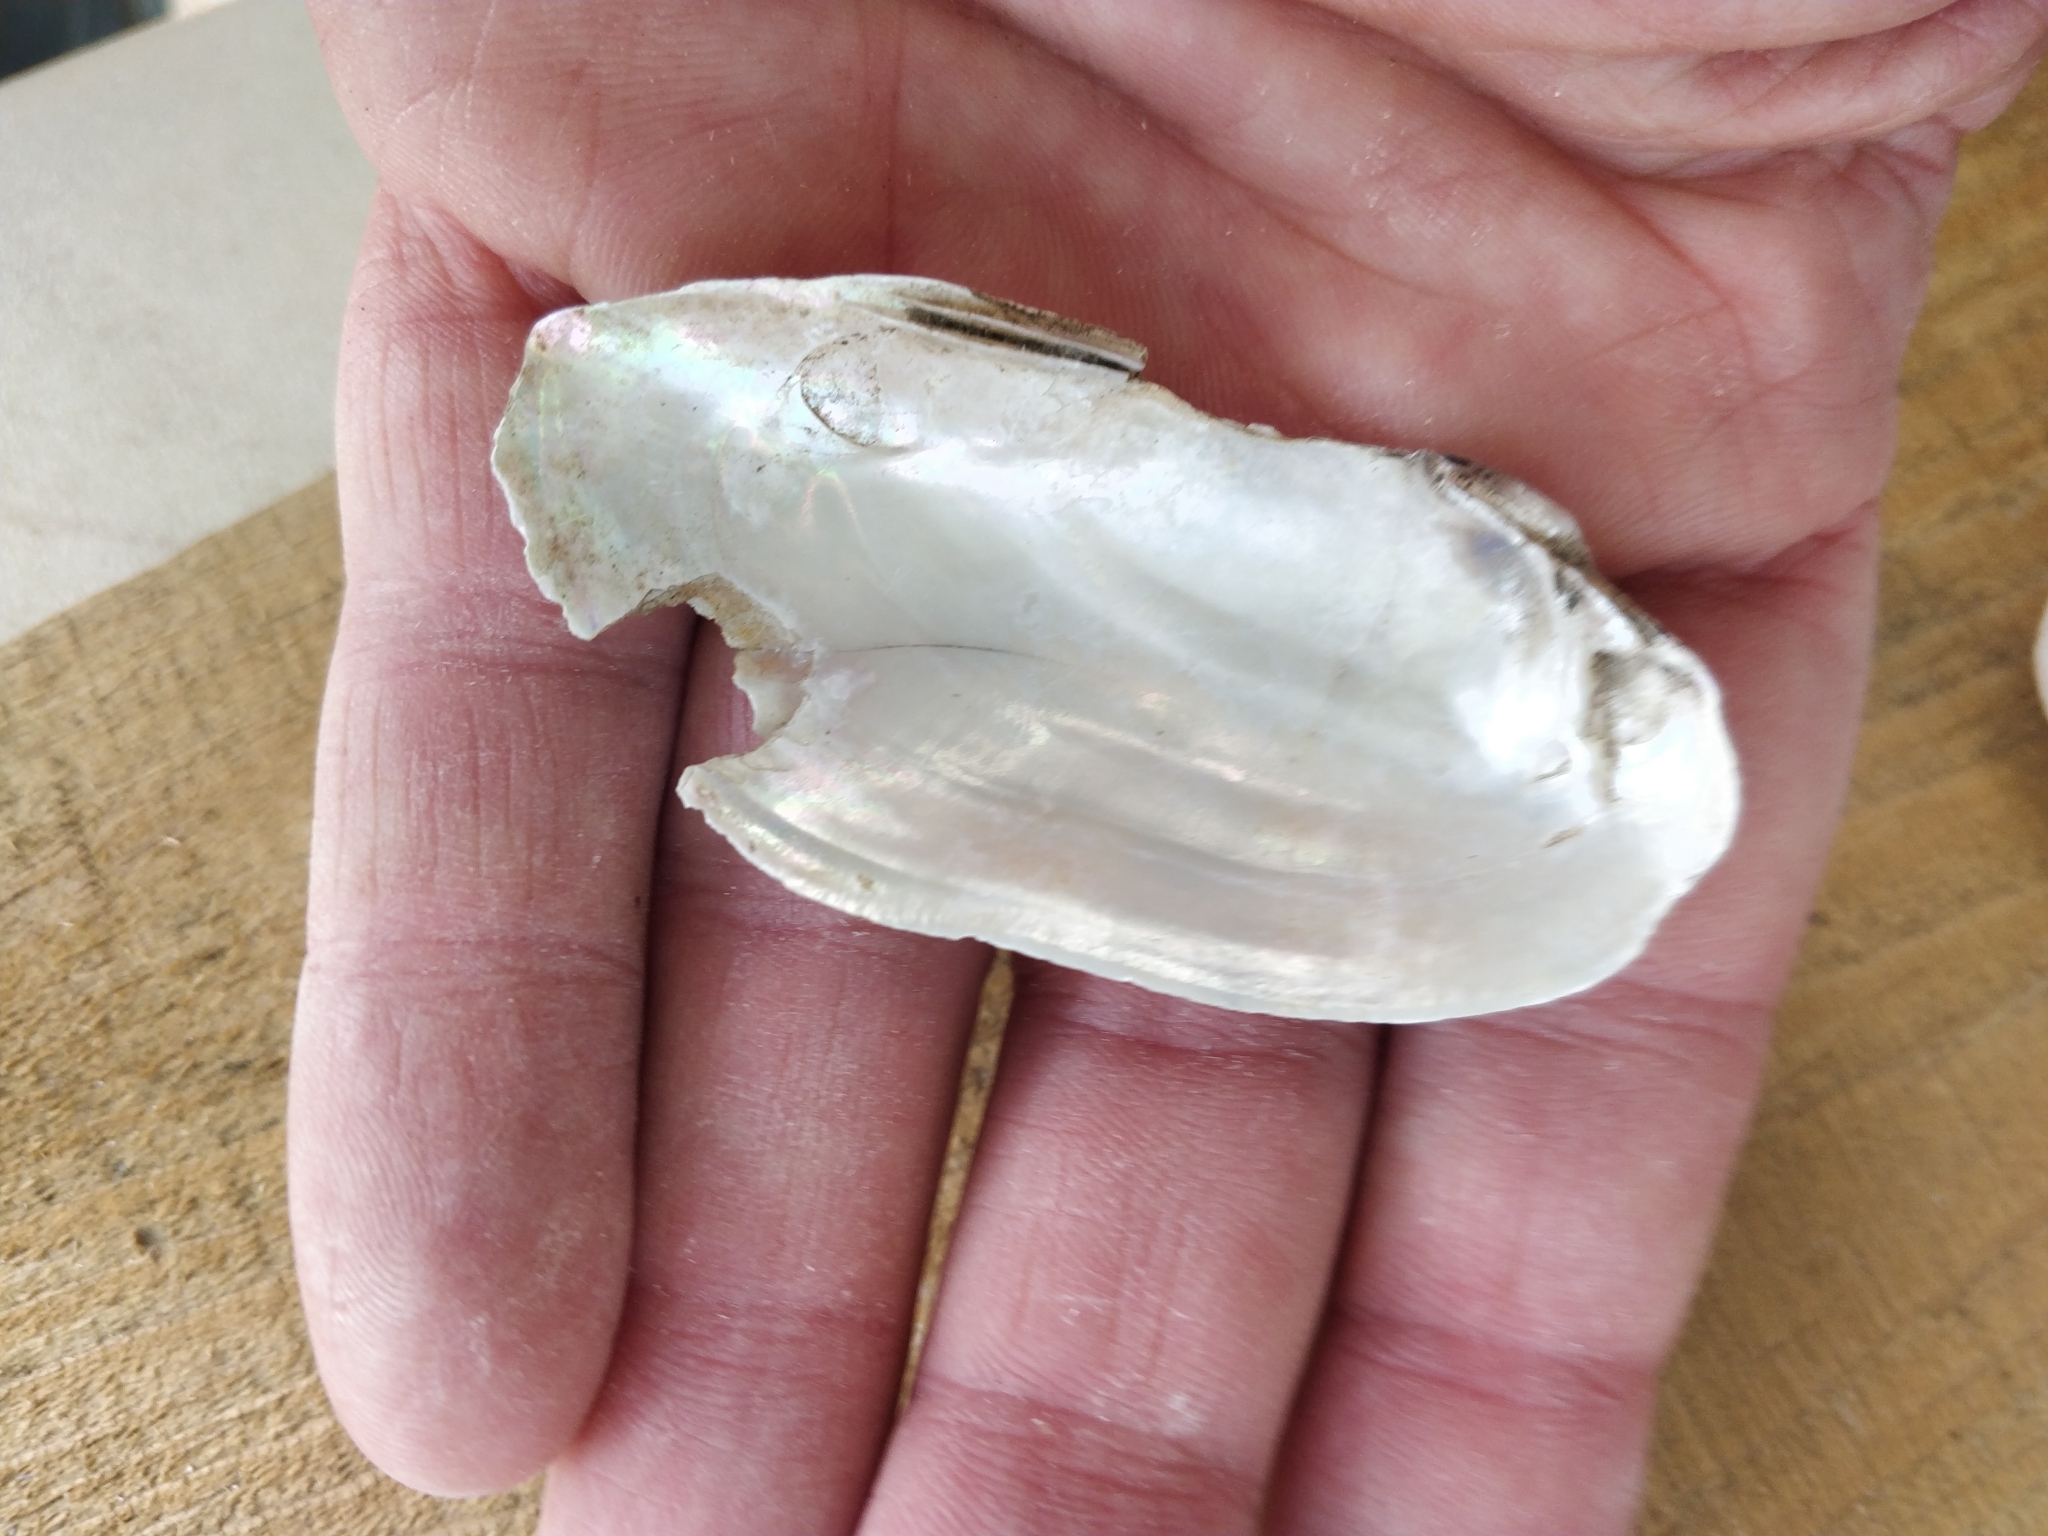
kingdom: Animalia
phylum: Mollusca
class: Bivalvia
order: Unionida
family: Unionidae
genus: Lampsilis
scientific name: Lampsilis teres
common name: Yellow sandshell
